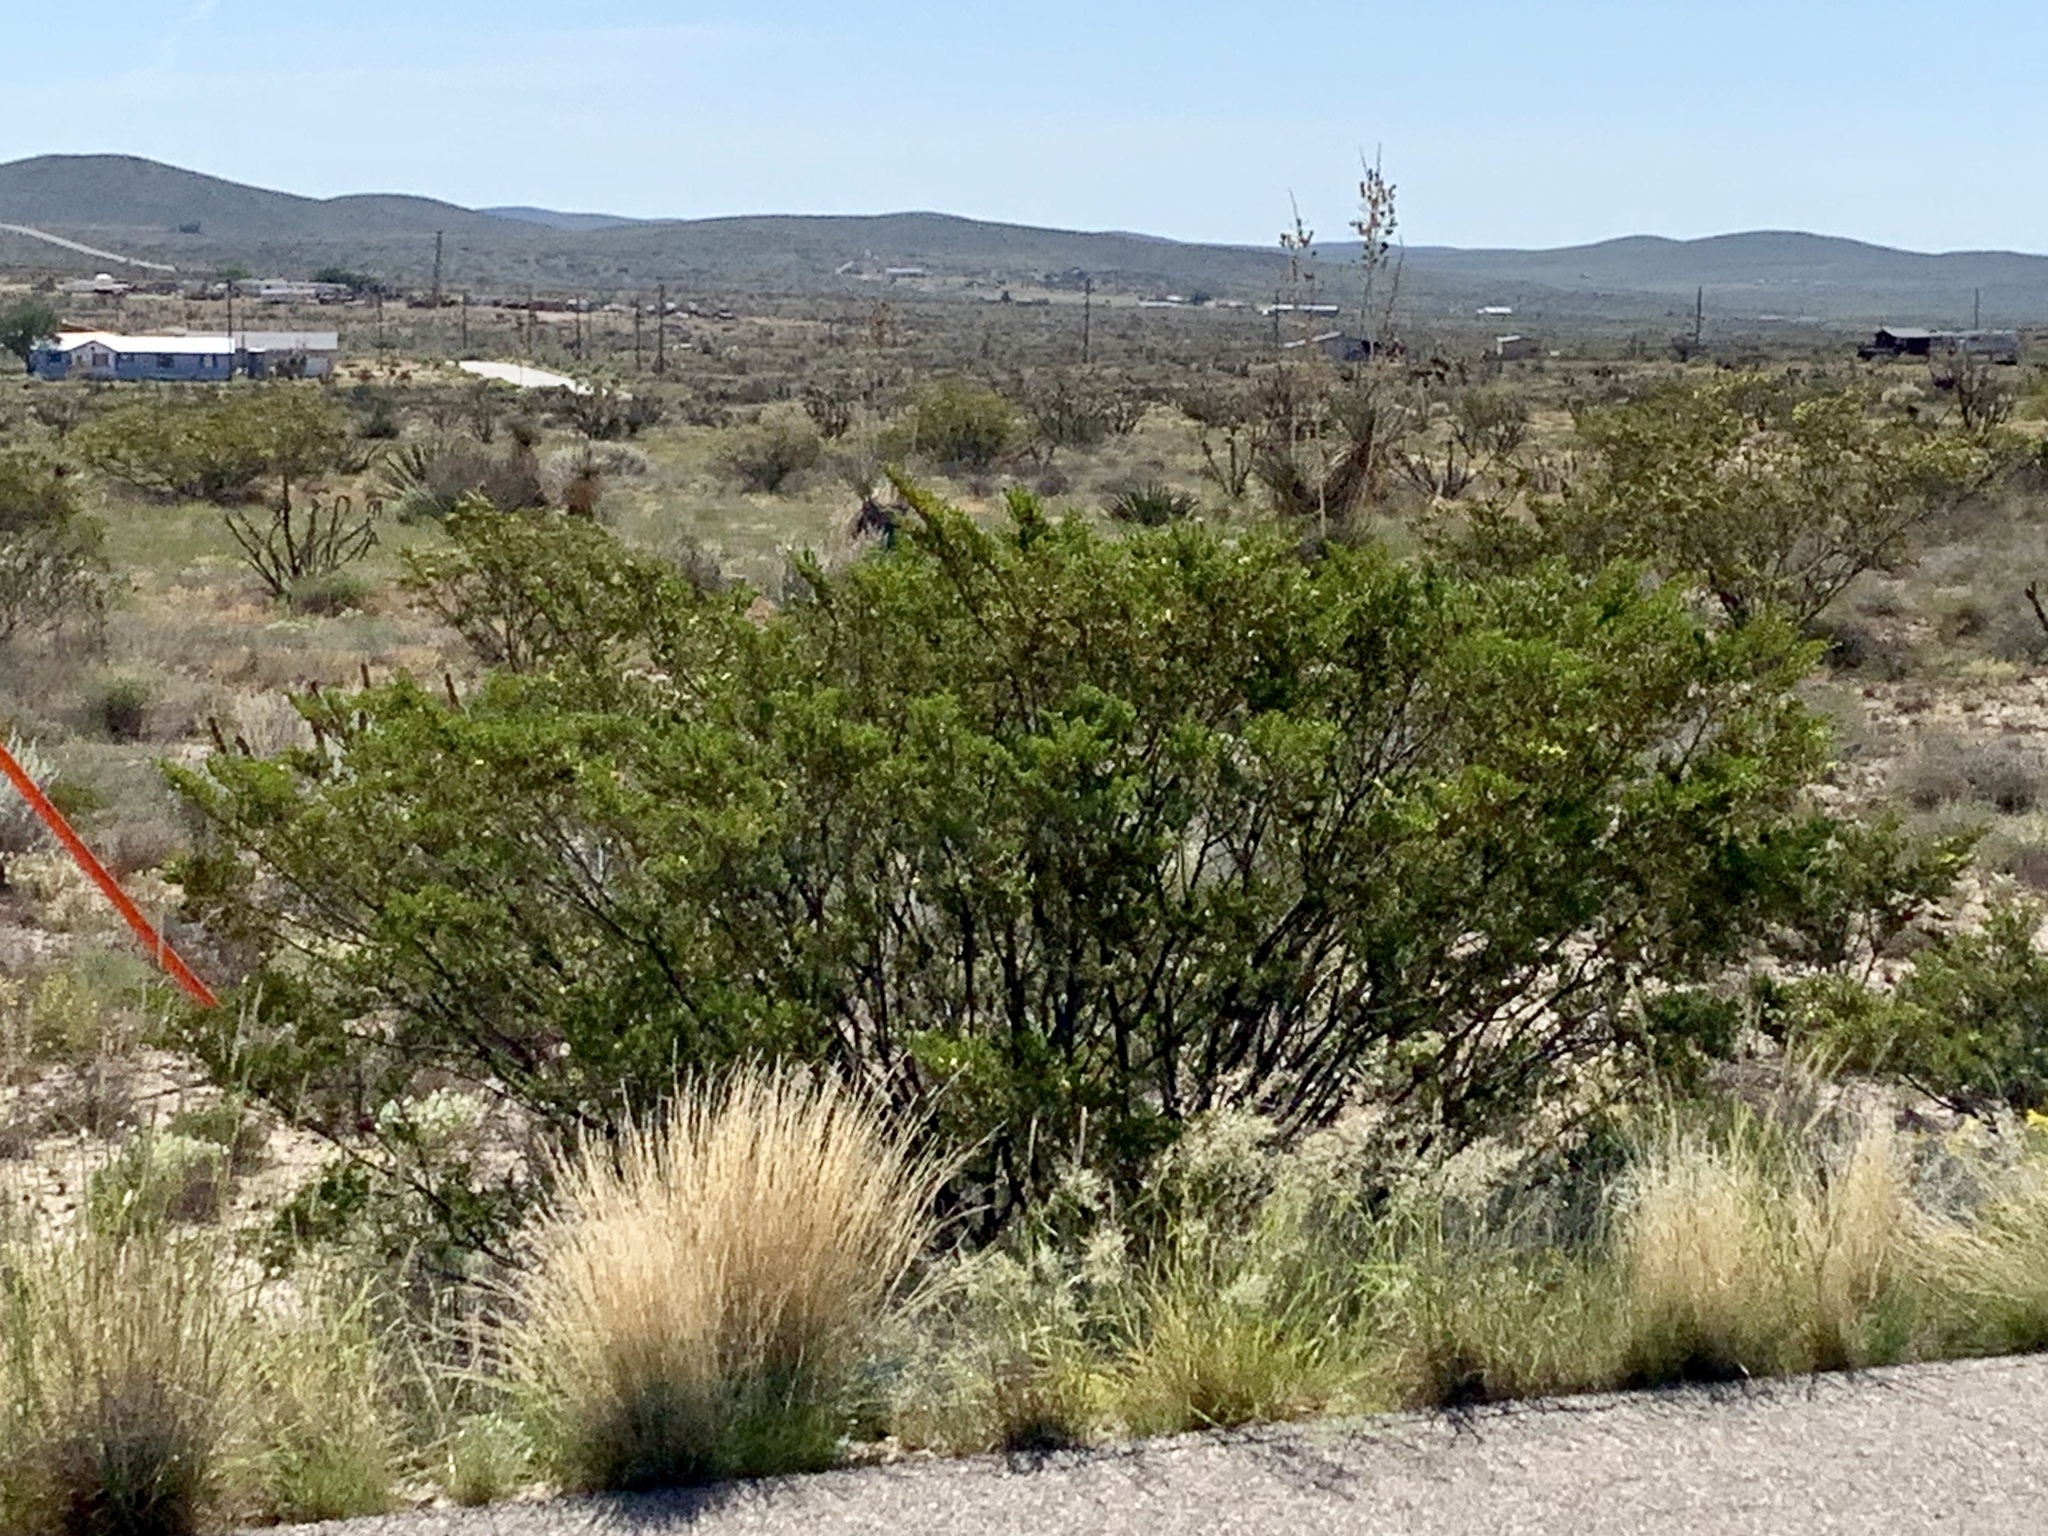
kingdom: Plantae
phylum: Tracheophyta
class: Magnoliopsida
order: Zygophyllales
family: Zygophyllaceae
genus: Larrea
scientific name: Larrea tridentata
